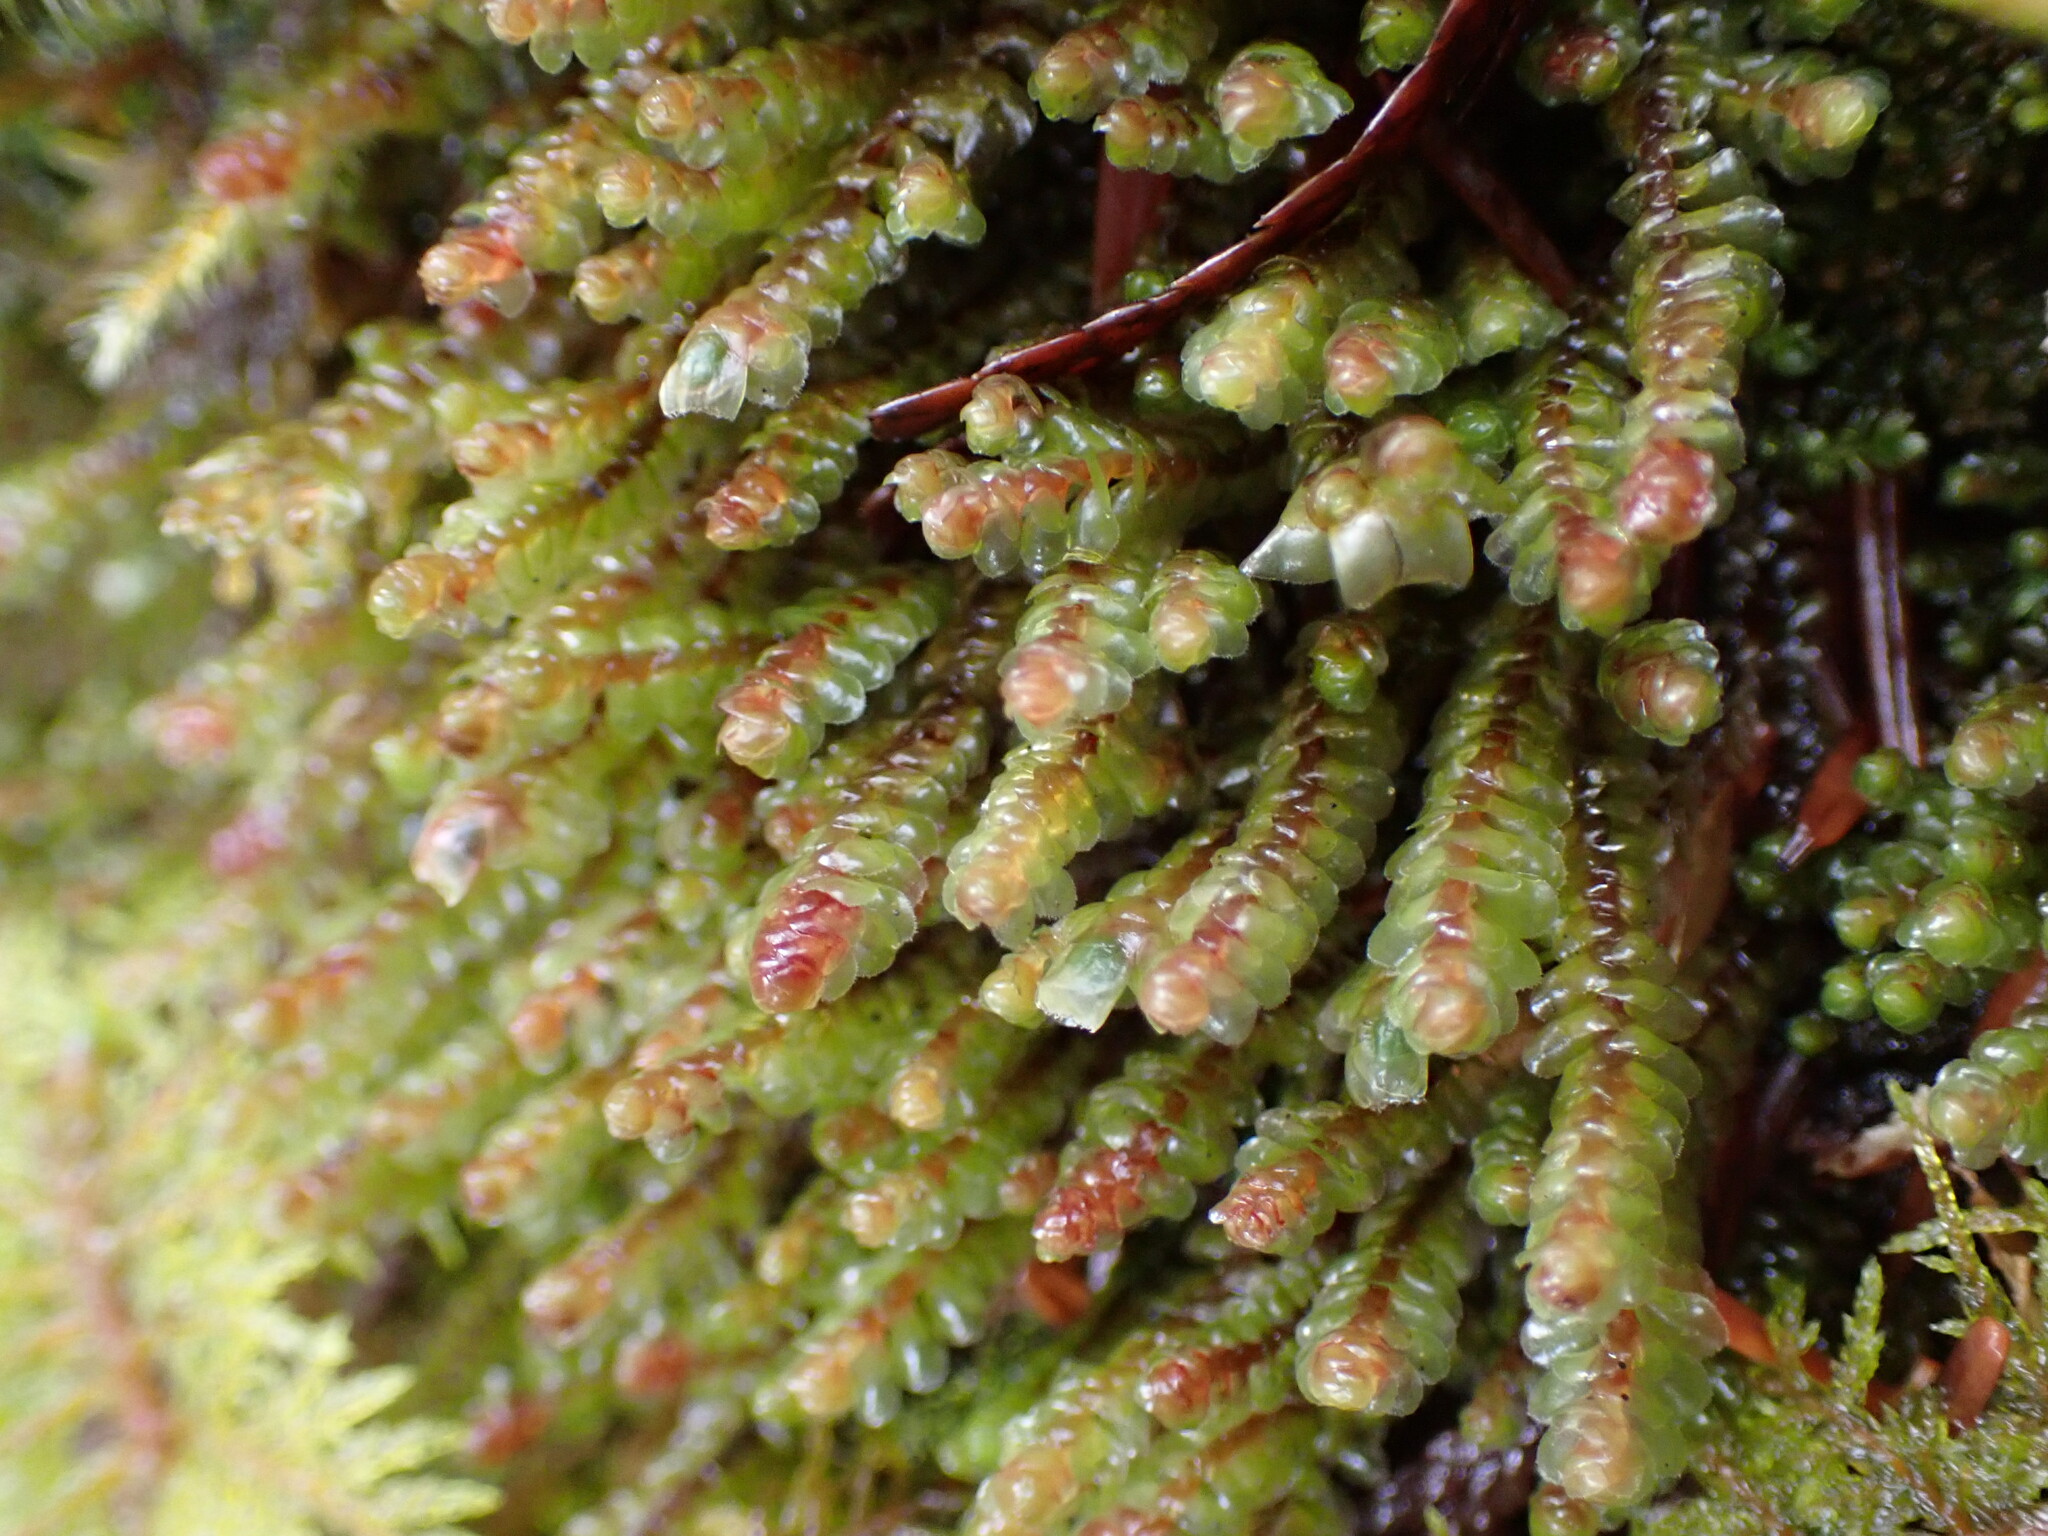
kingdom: Plantae
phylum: Marchantiophyta
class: Jungermanniopsida
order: Jungermanniales
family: Scapaniaceae
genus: Scapania
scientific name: Scapania americana
